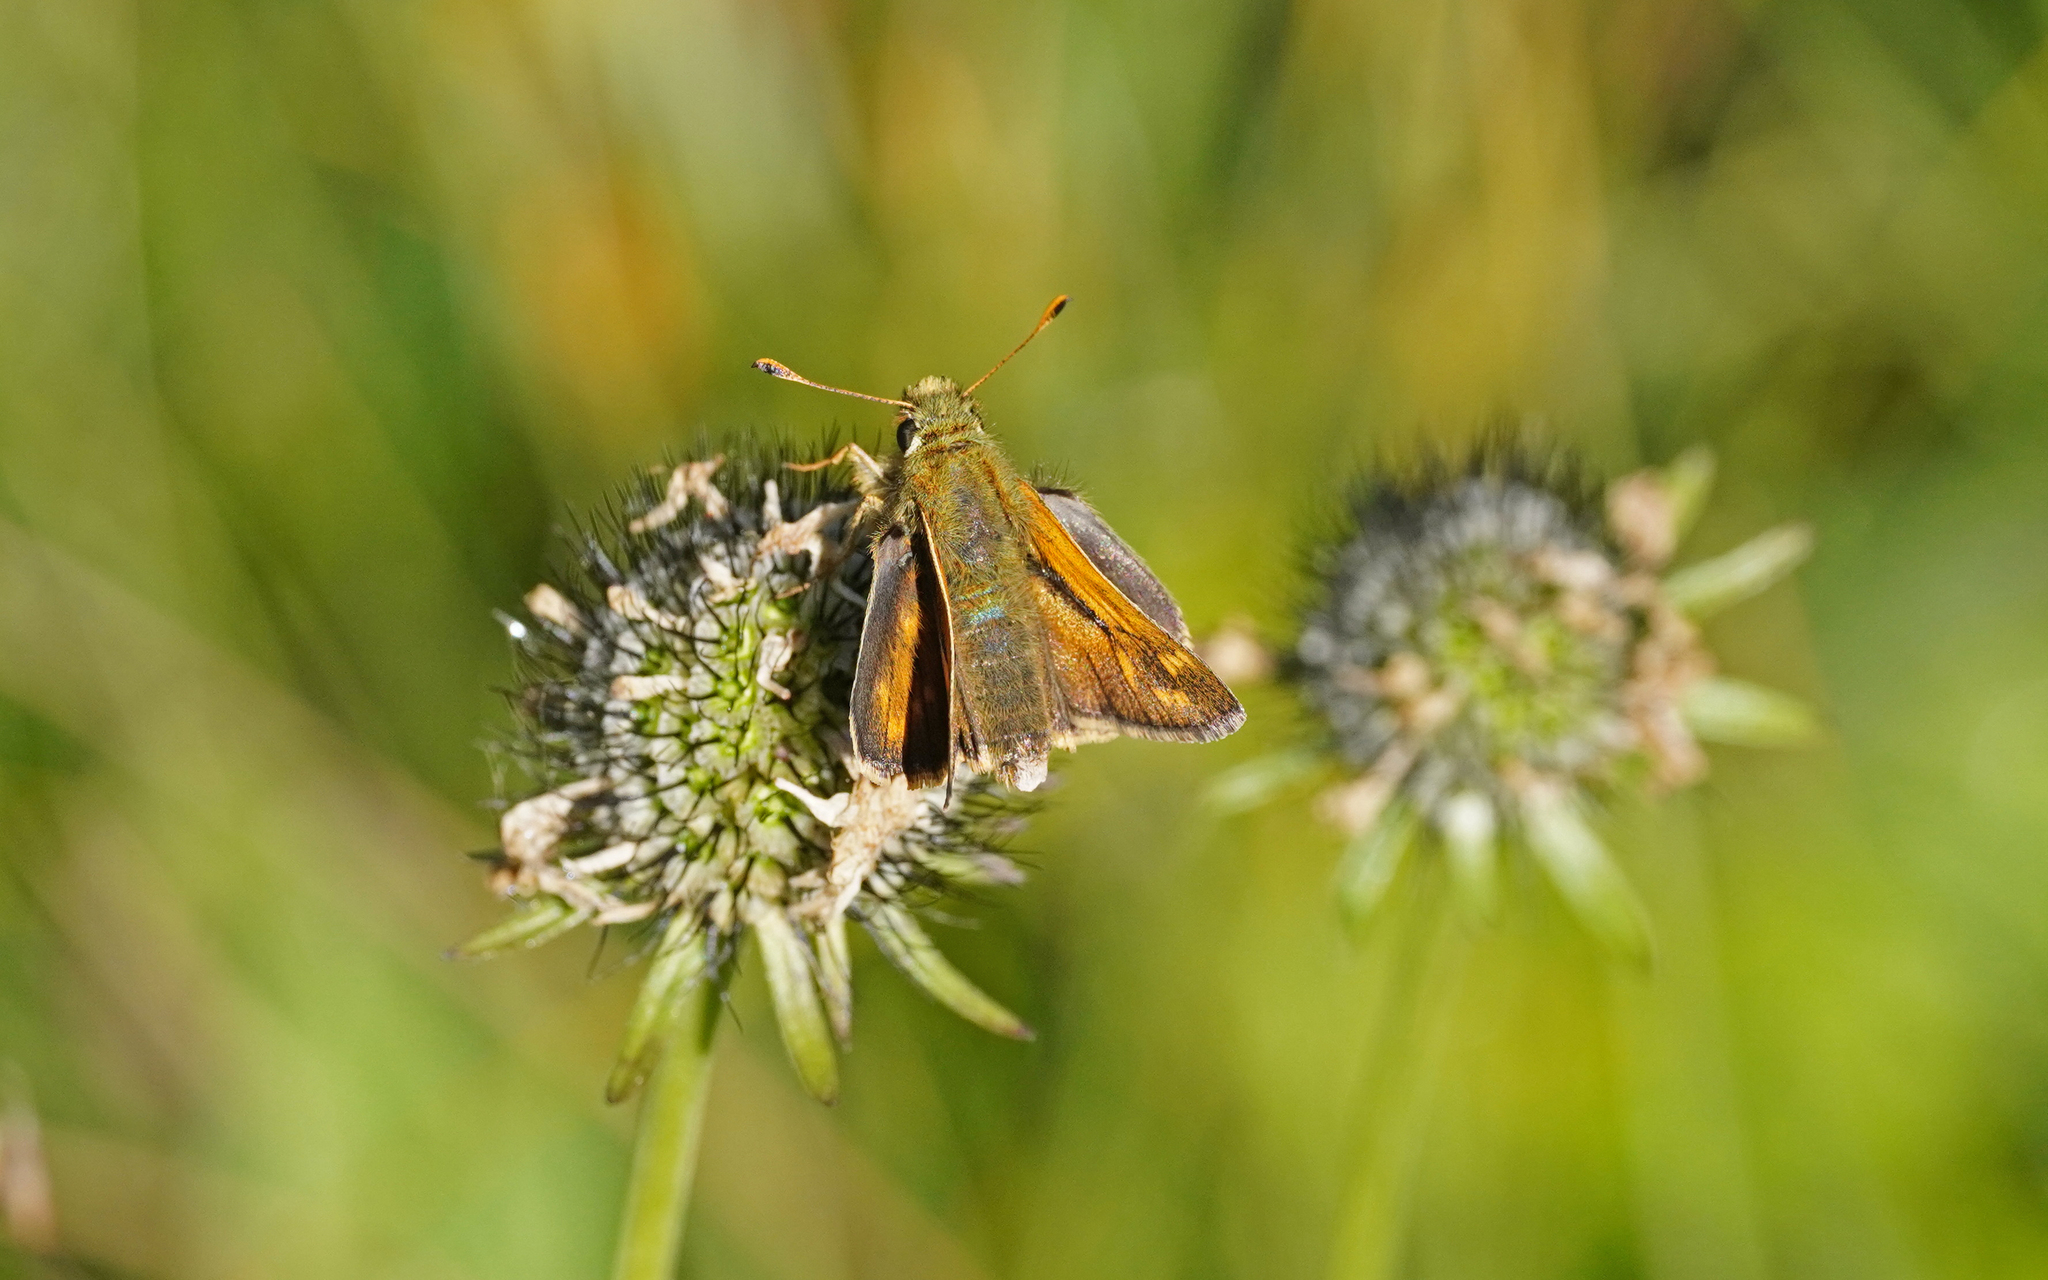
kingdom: Animalia
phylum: Arthropoda
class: Insecta
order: Lepidoptera
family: Hesperiidae
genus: Hesperia
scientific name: Hesperia comma
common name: Common branded skipper
